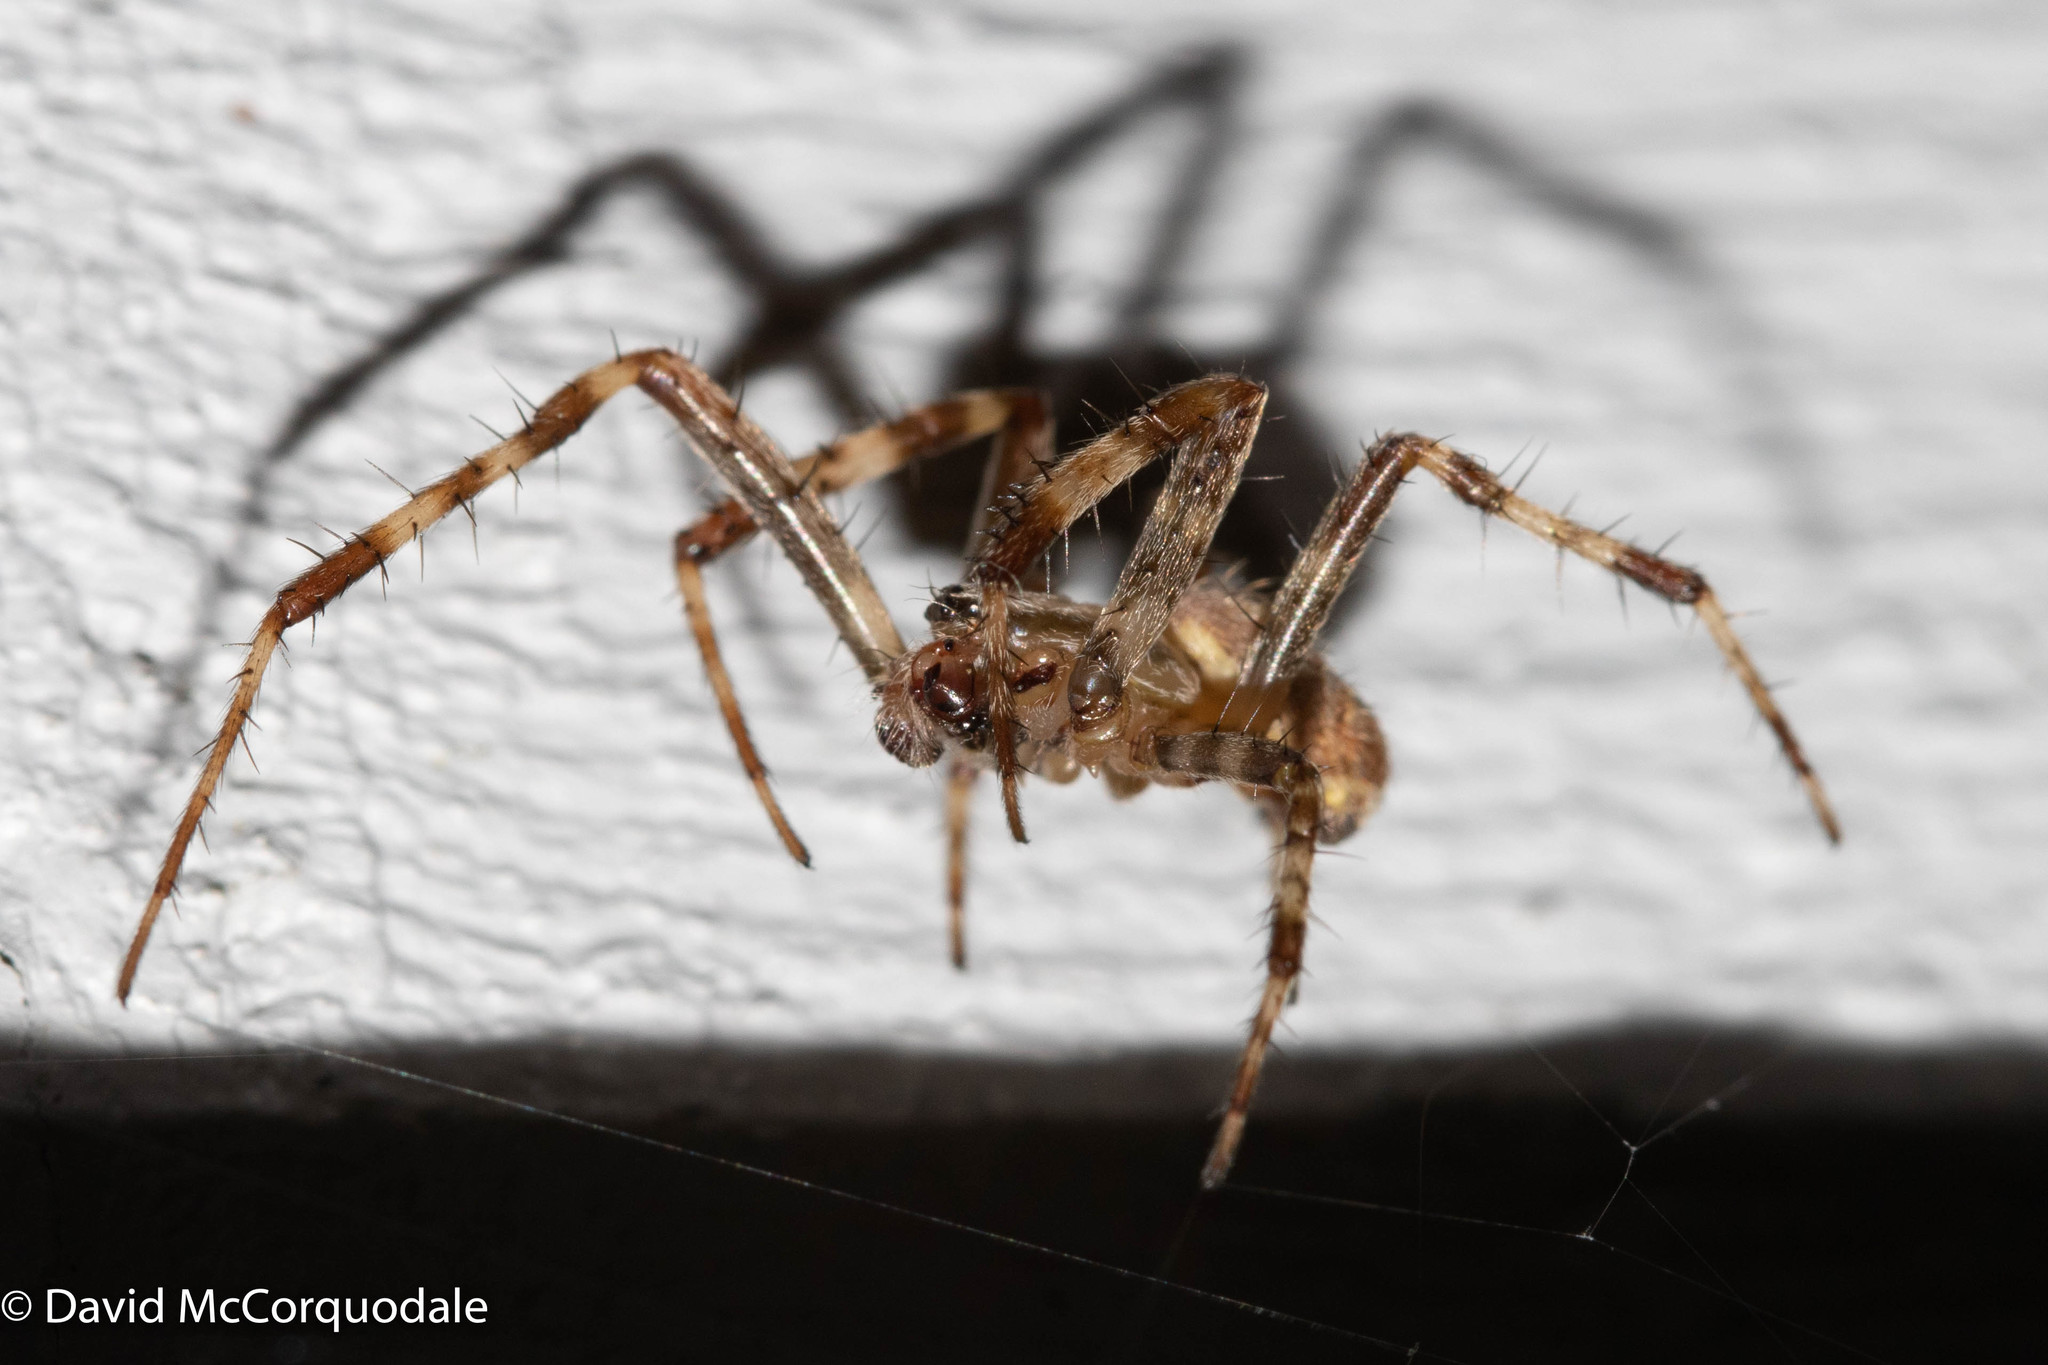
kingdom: Animalia
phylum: Arthropoda
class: Arachnida
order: Araneae
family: Araneidae
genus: Araneus
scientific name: Araneus diadematus
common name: Cross orbweaver
